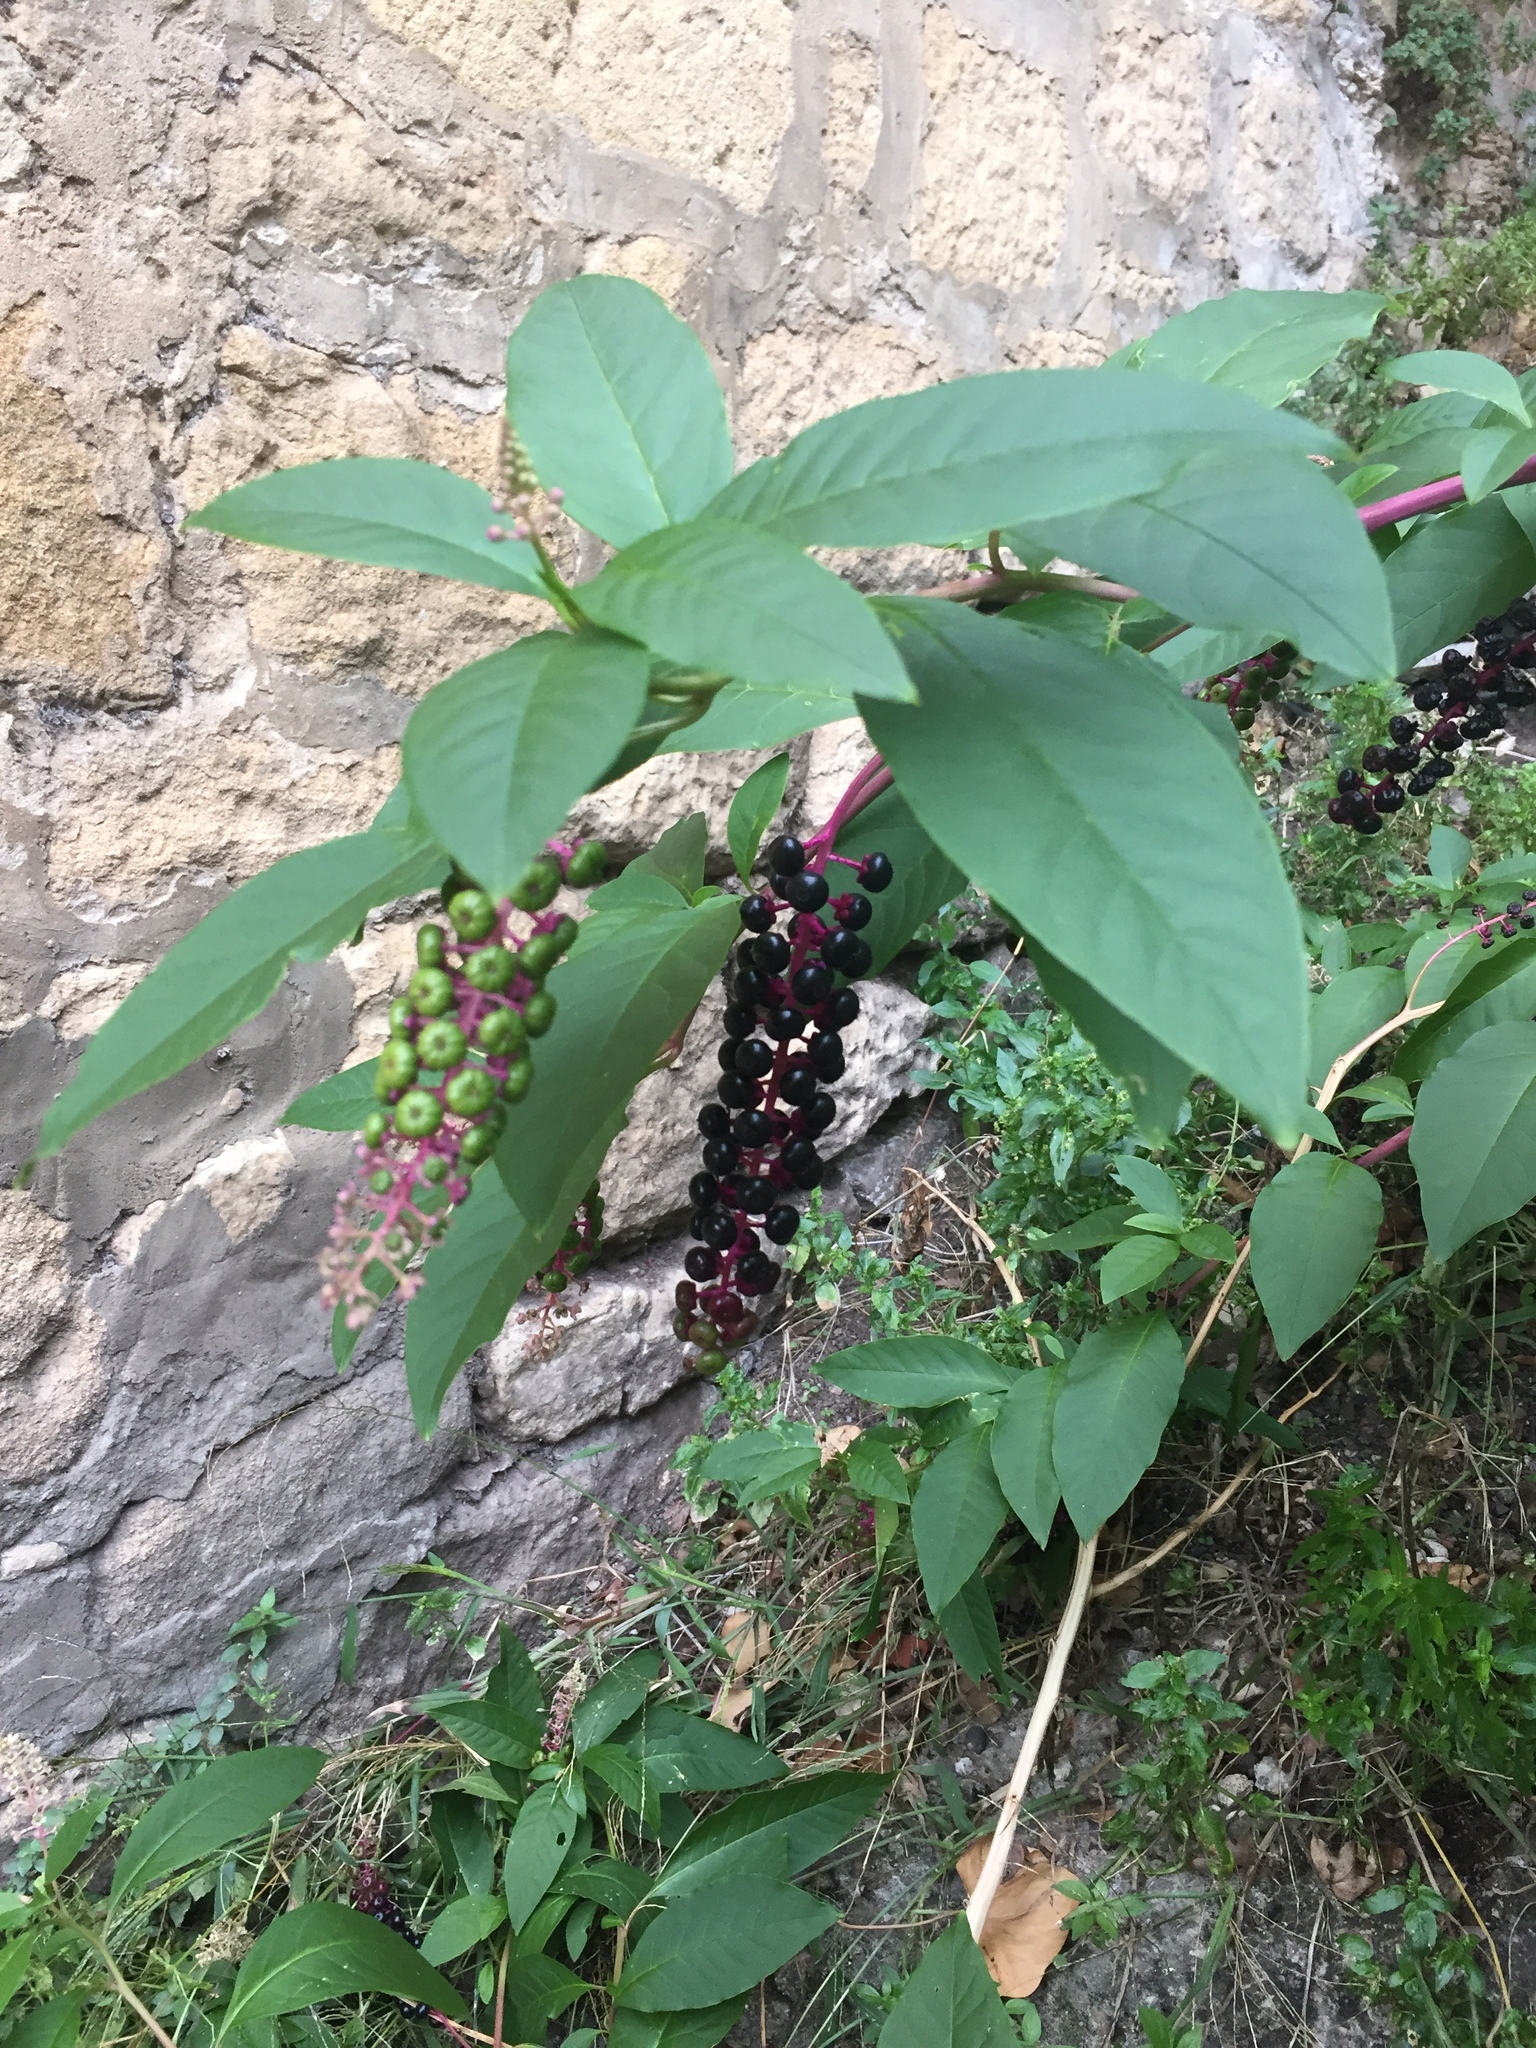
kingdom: Plantae
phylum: Tracheophyta
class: Magnoliopsida
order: Caryophyllales
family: Phytolaccaceae
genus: Phytolacca
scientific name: Phytolacca americana
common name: American pokeweed
